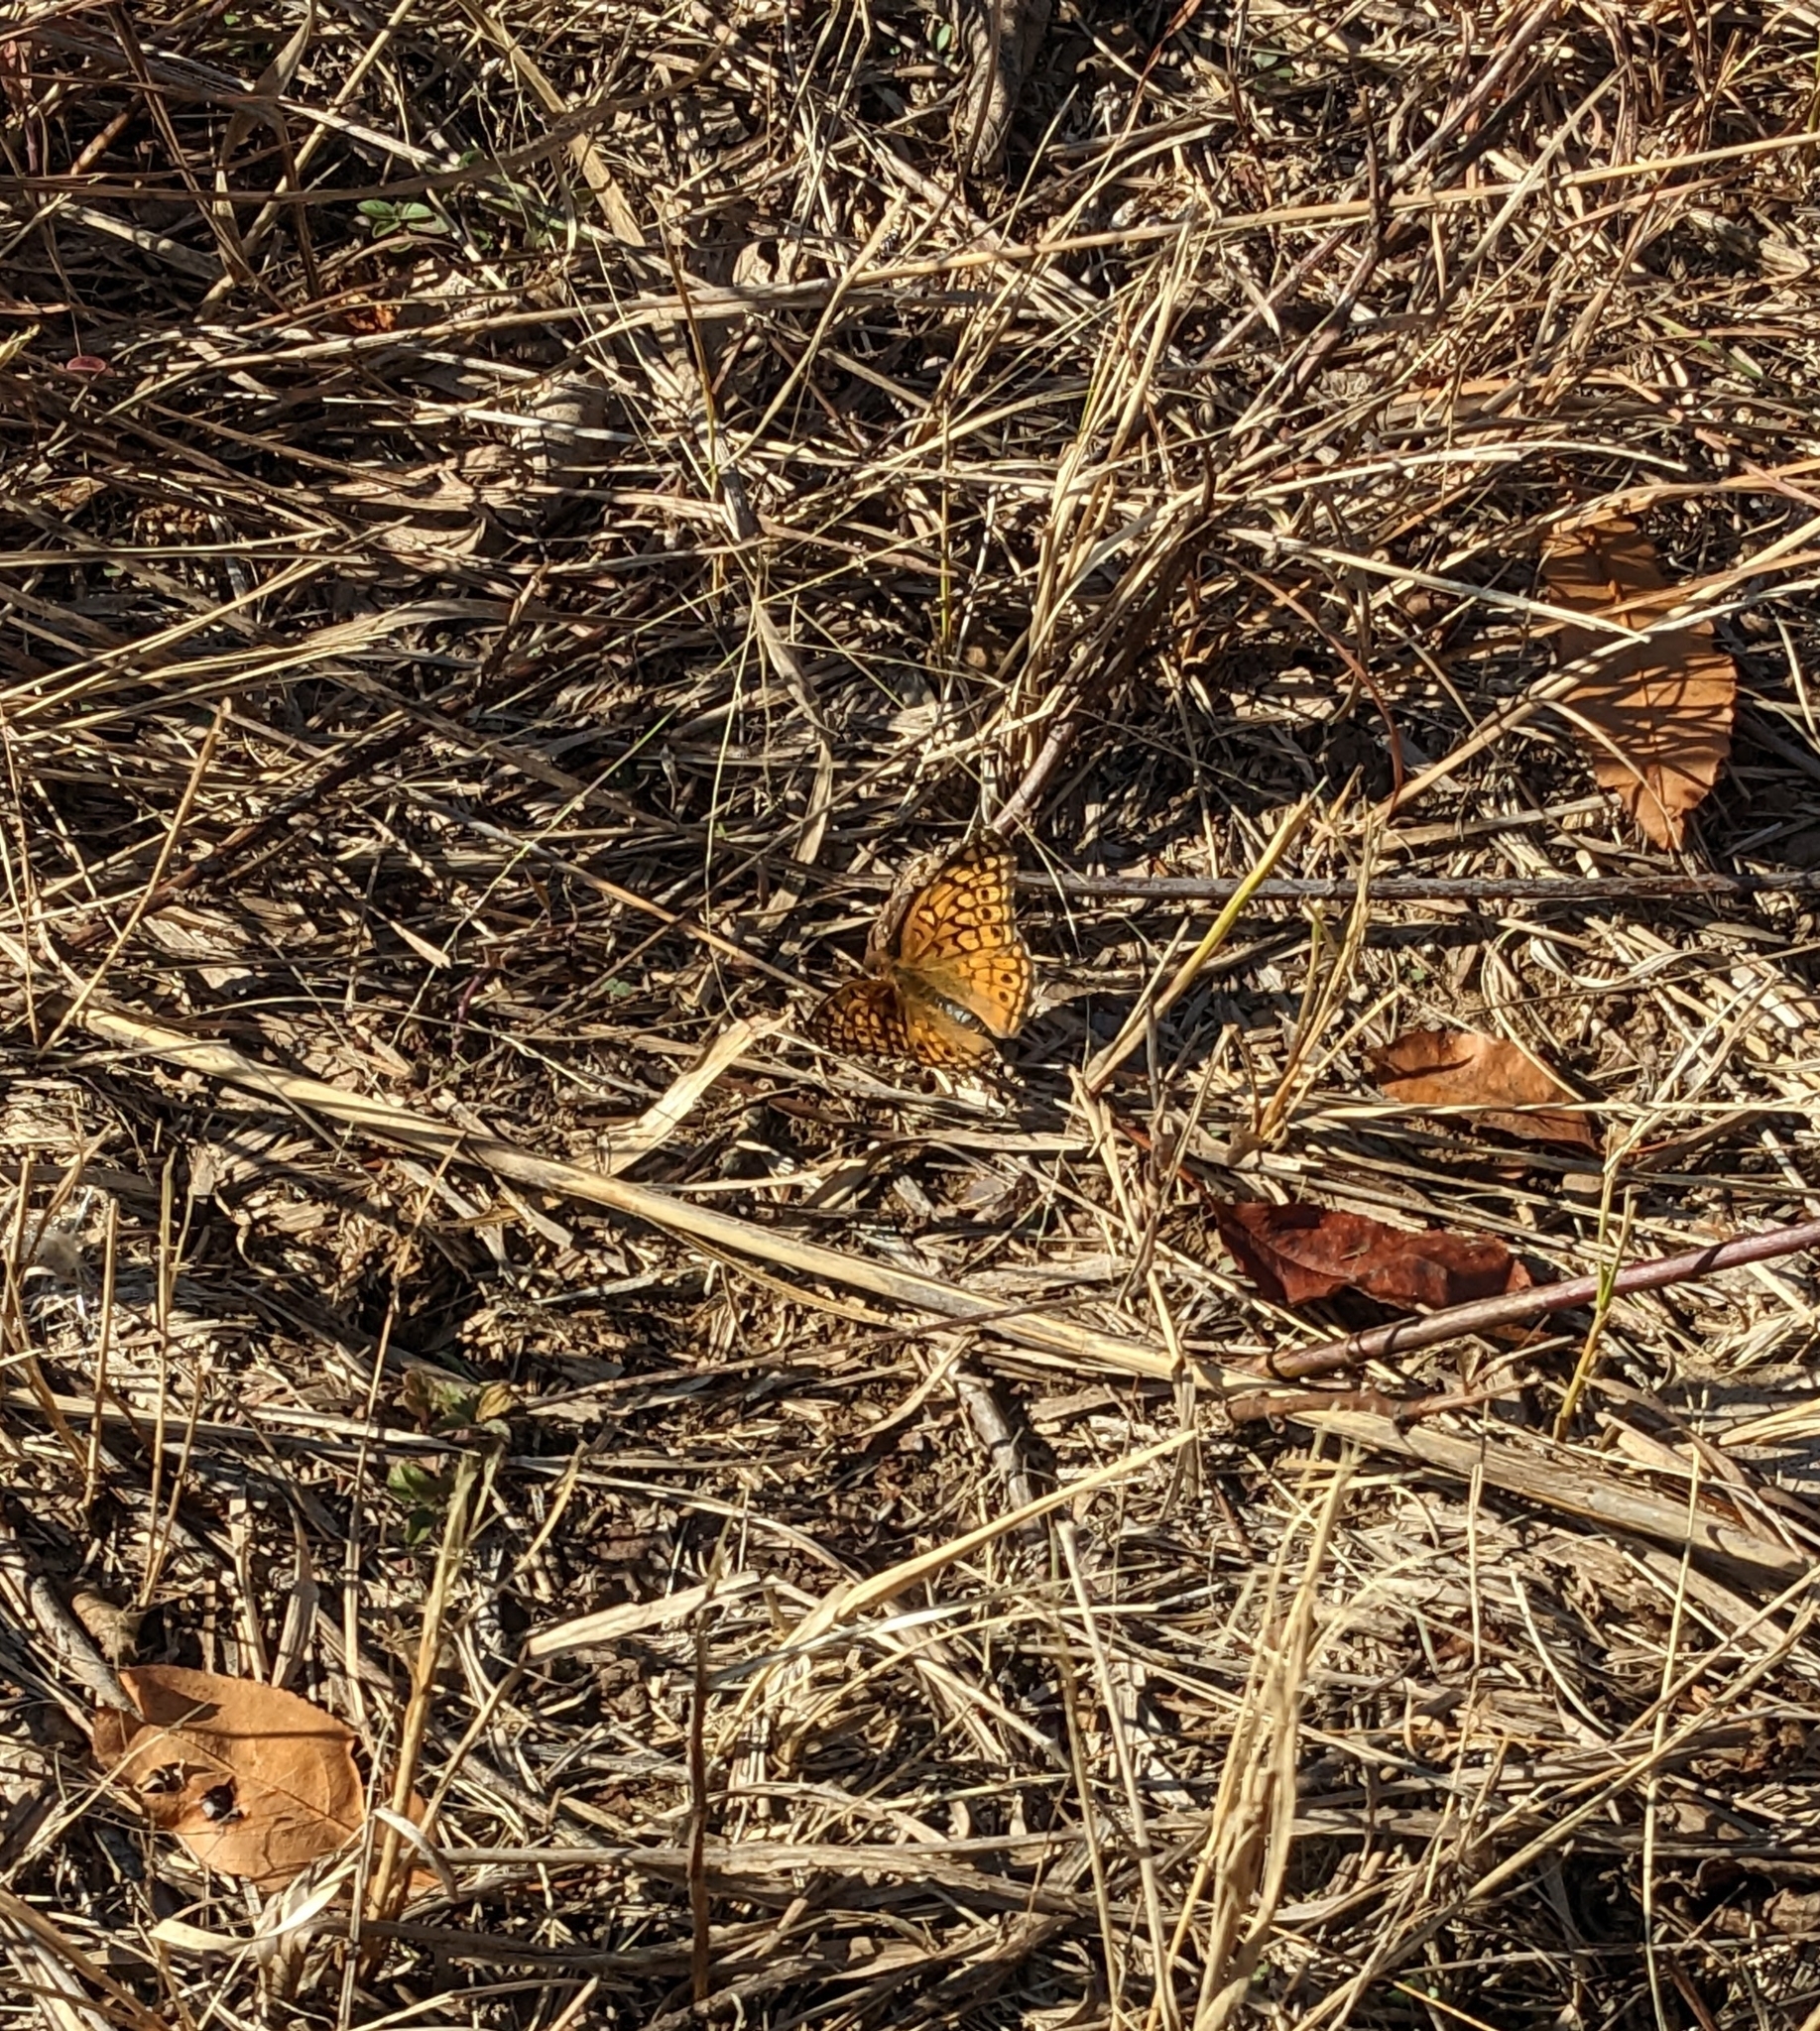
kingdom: Animalia
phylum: Arthropoda
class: Insecta
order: Lepidoptera
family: Nymphalidae
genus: Euptoieta
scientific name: Euptoieta claudia
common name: Variegated fritillary
